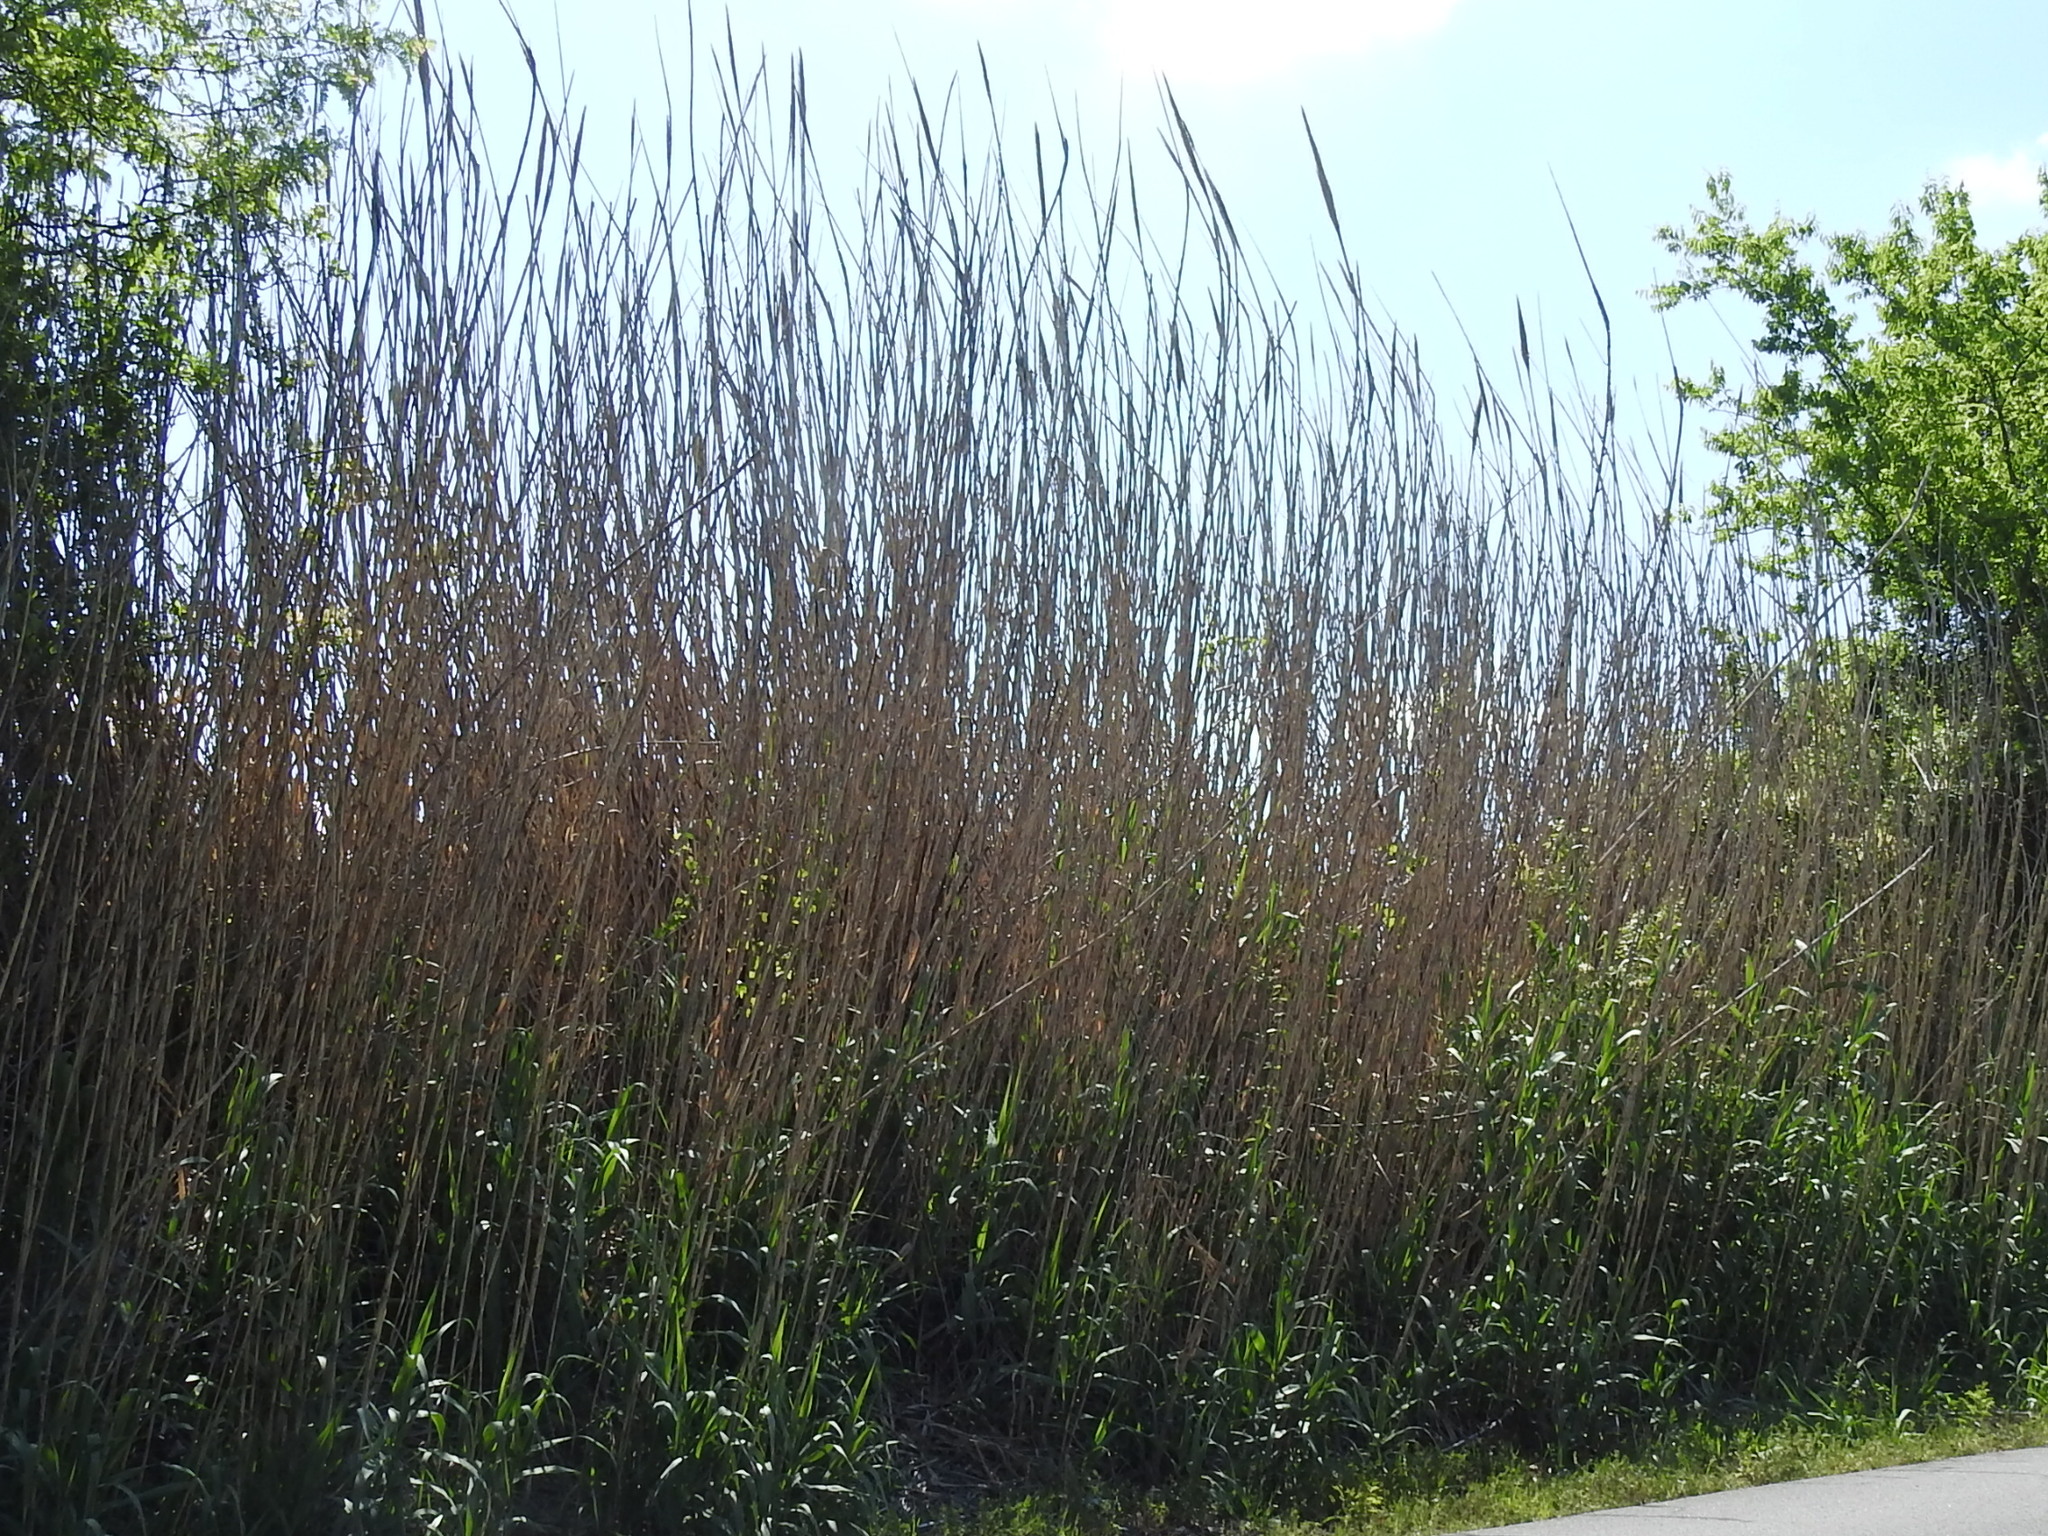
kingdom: Plantae
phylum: Tracheophyta
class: Liliopsida
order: Poales
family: Poaceae
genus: Arundo
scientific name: Arundo donax
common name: Giant reed
